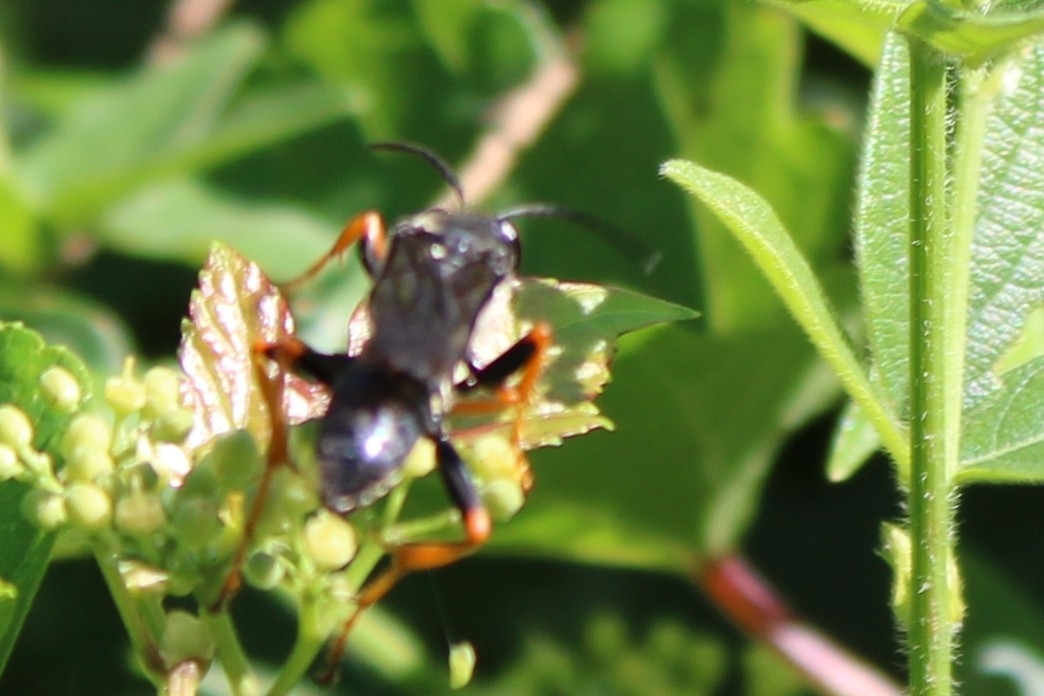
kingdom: Animalia
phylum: Arthropoda
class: Insecta
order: Hymenoptera
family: Sphecidae
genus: Sphex
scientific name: Sphex nudus
